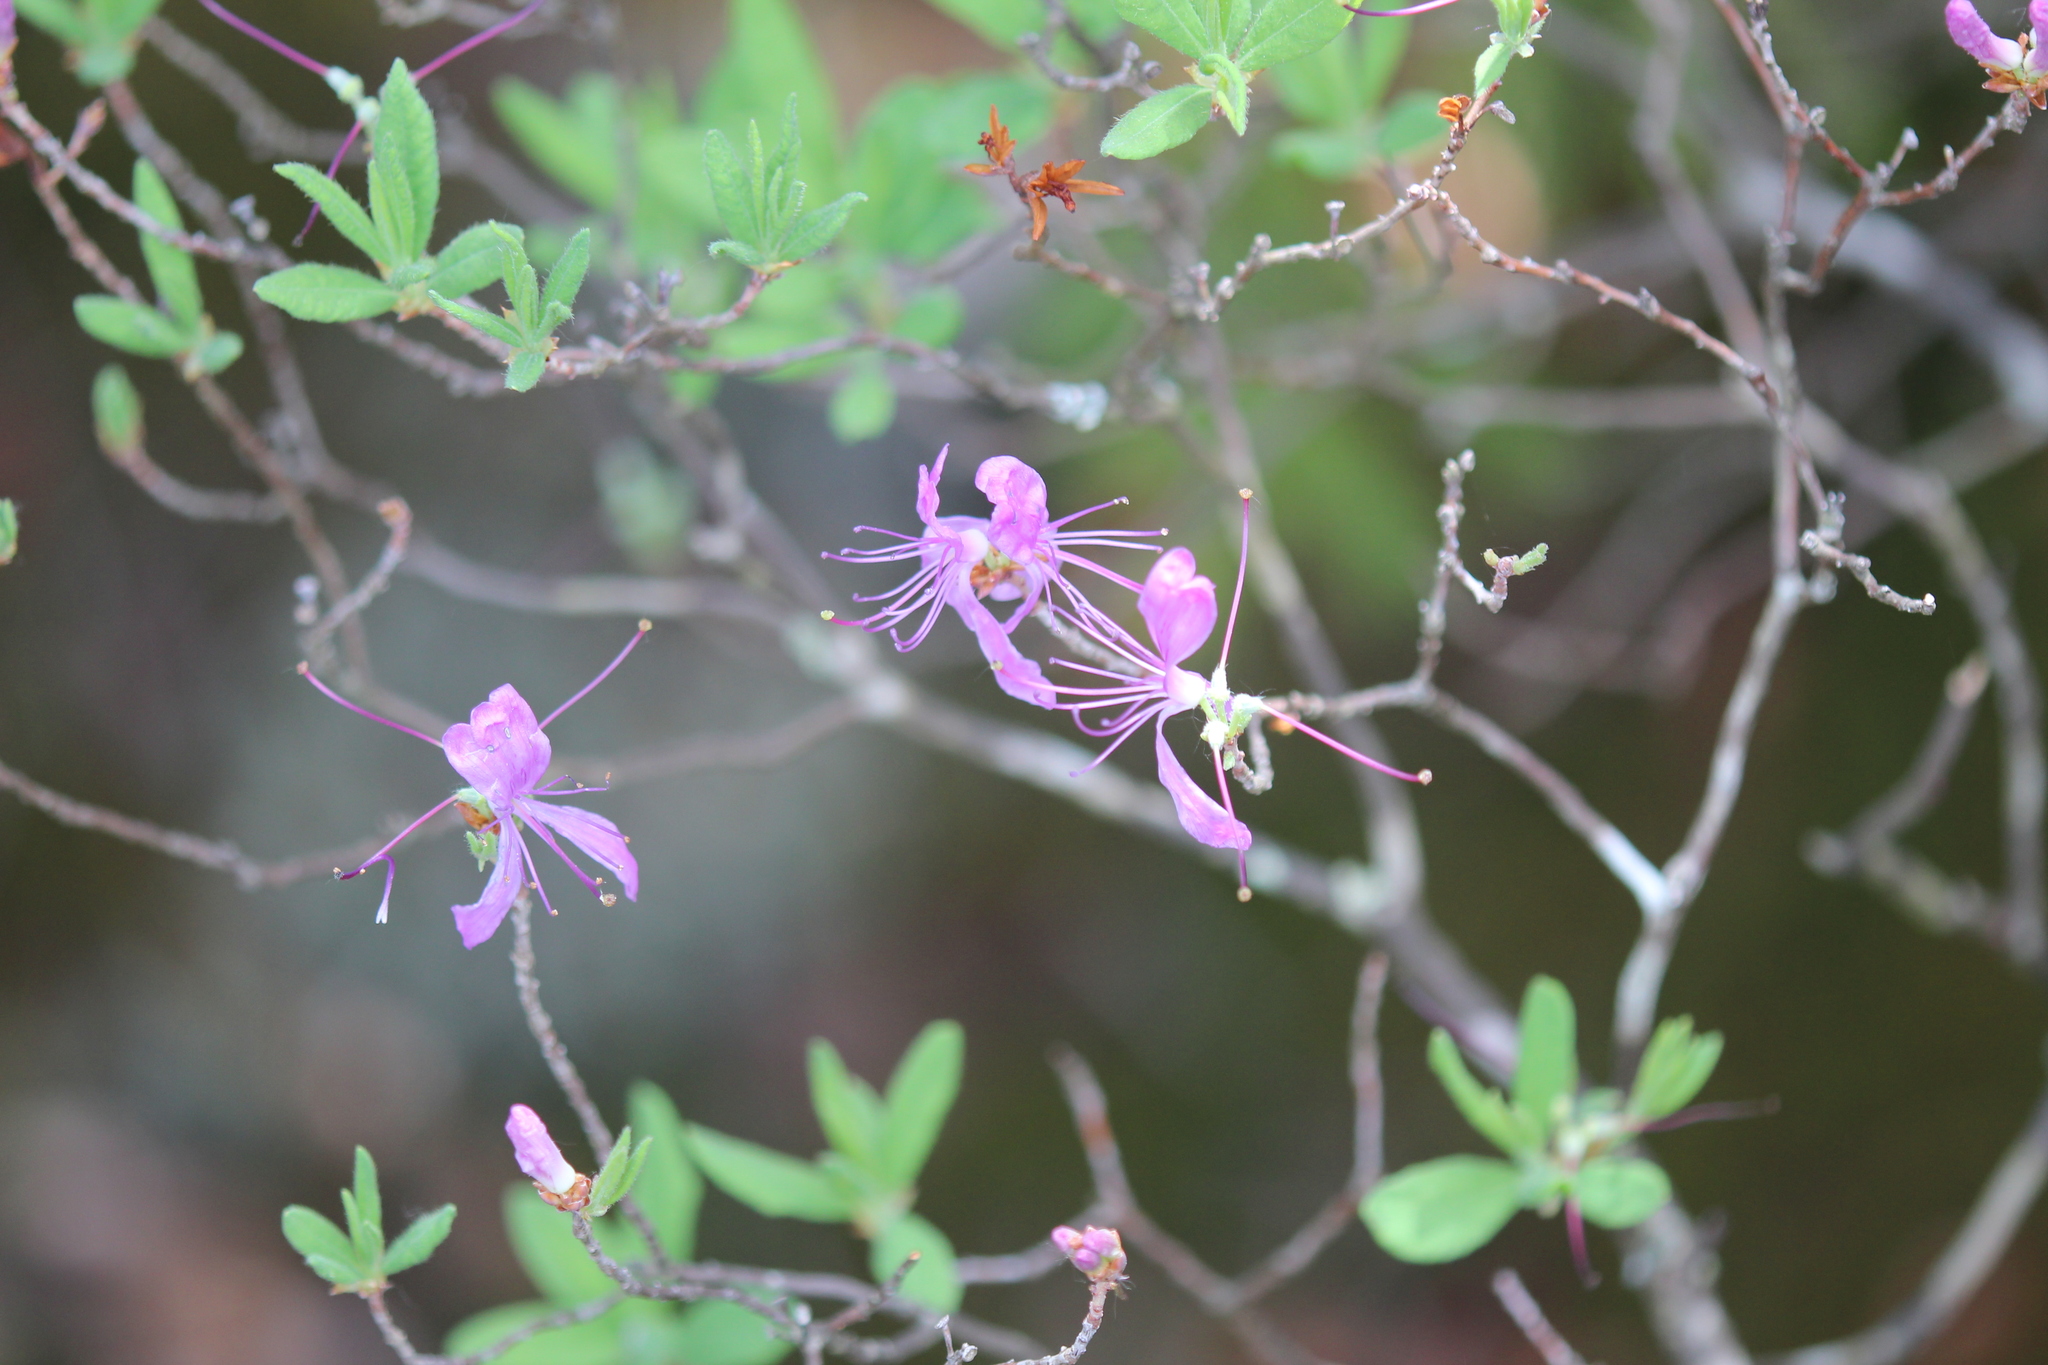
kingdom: Plantae
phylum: Tracheophyta
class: Magnoliopsida
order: Ericales
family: Ericaceae
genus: Rhododendron
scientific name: Rhododendron canadense
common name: Rhodora
